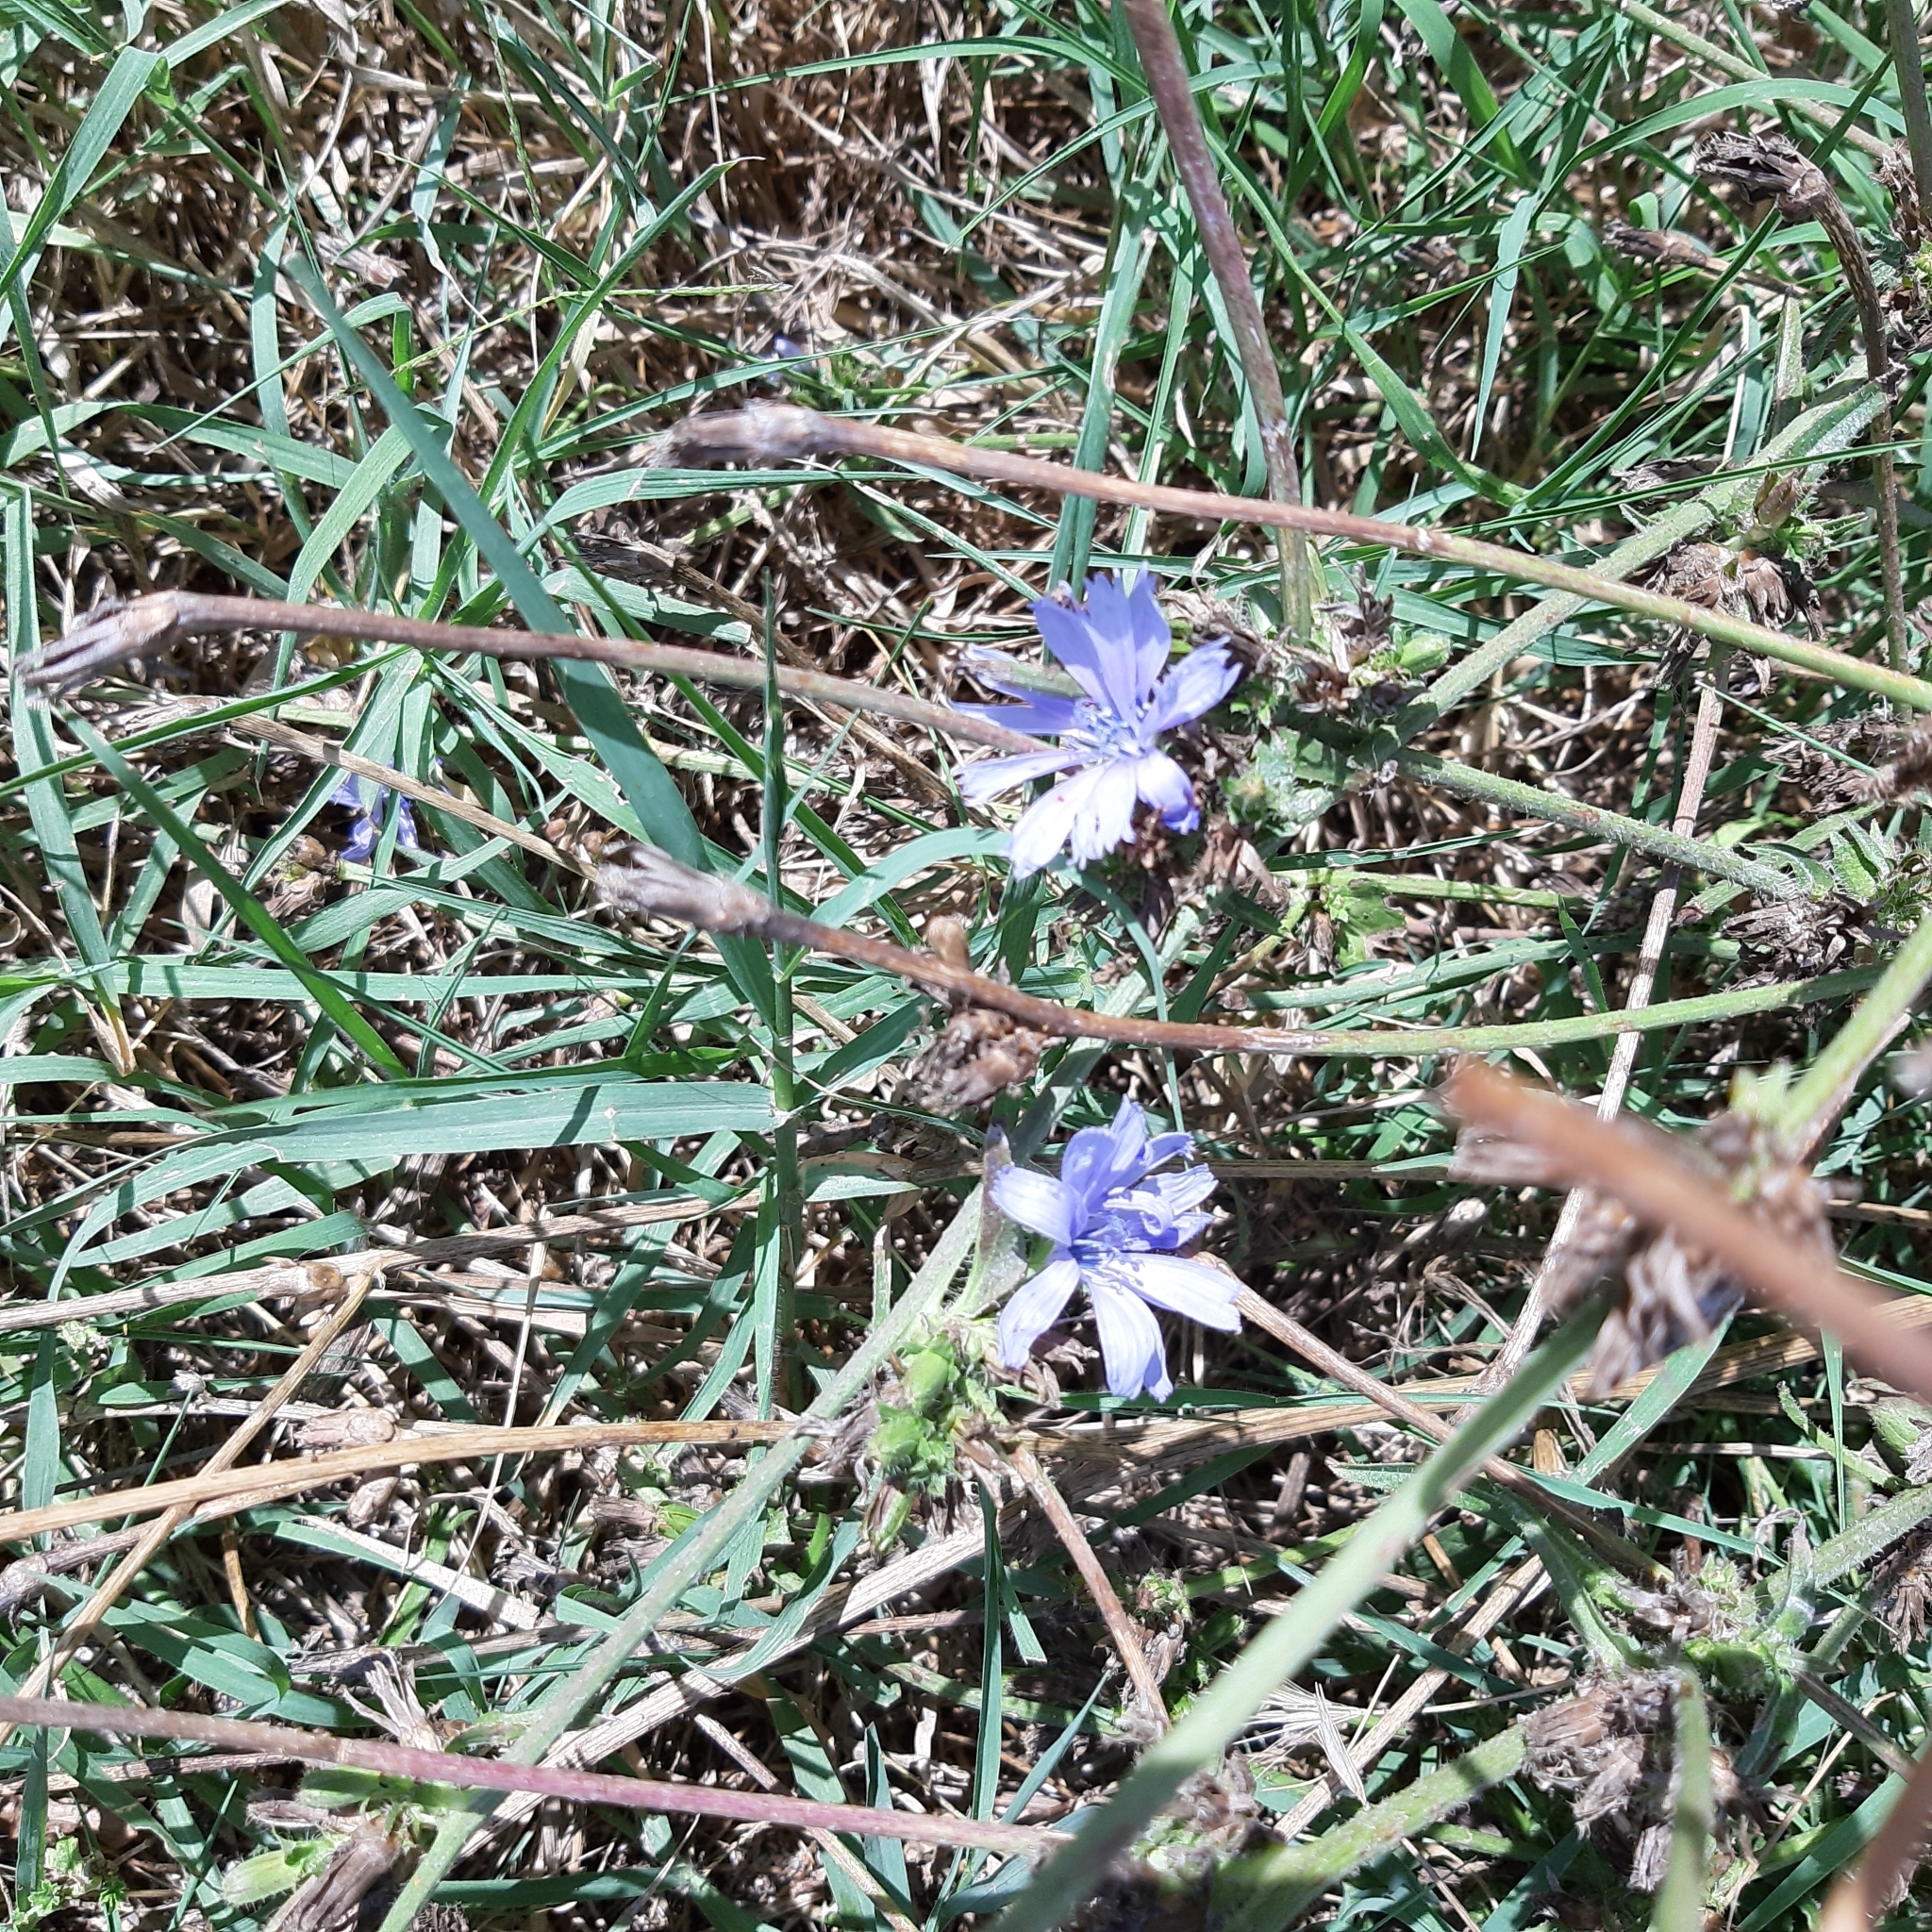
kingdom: Plantae
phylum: Tracheophyta
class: Magnoliopsida
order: Asterales
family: Asteraceae
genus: Cichorium
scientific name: Cichorium intybus
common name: Chicory
